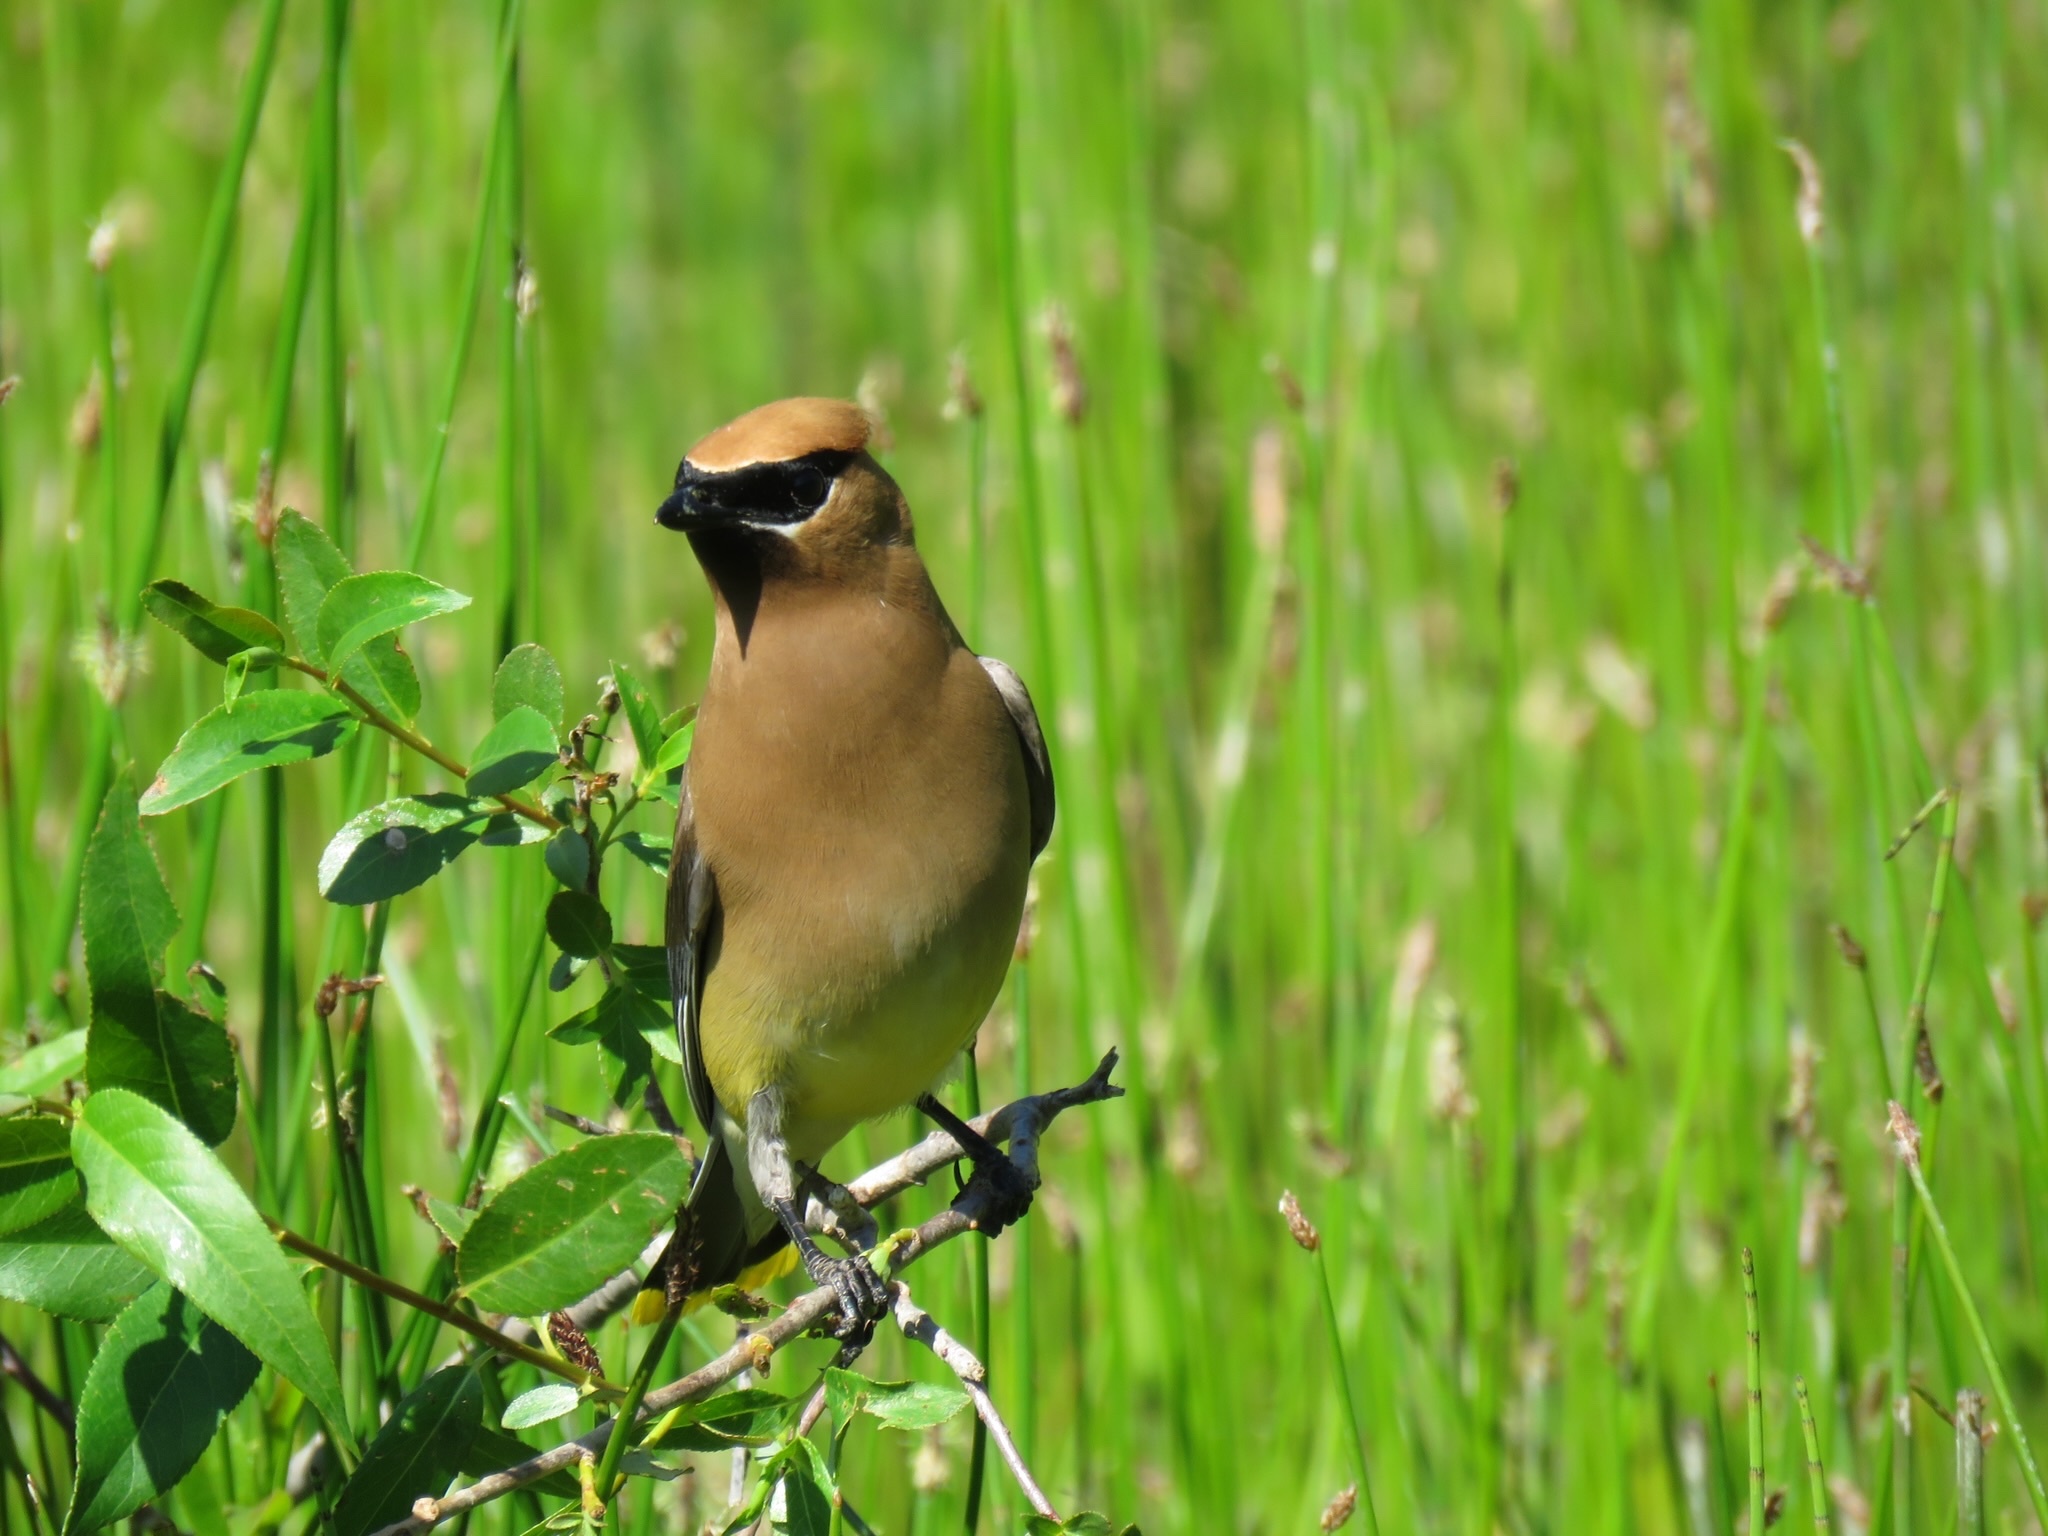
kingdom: Animalia
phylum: Chordata
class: Aves
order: Passeriformes
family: Bombycillidae
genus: Bombycilla
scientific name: Bombycilla cedrorum
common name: Cedar waxwing
